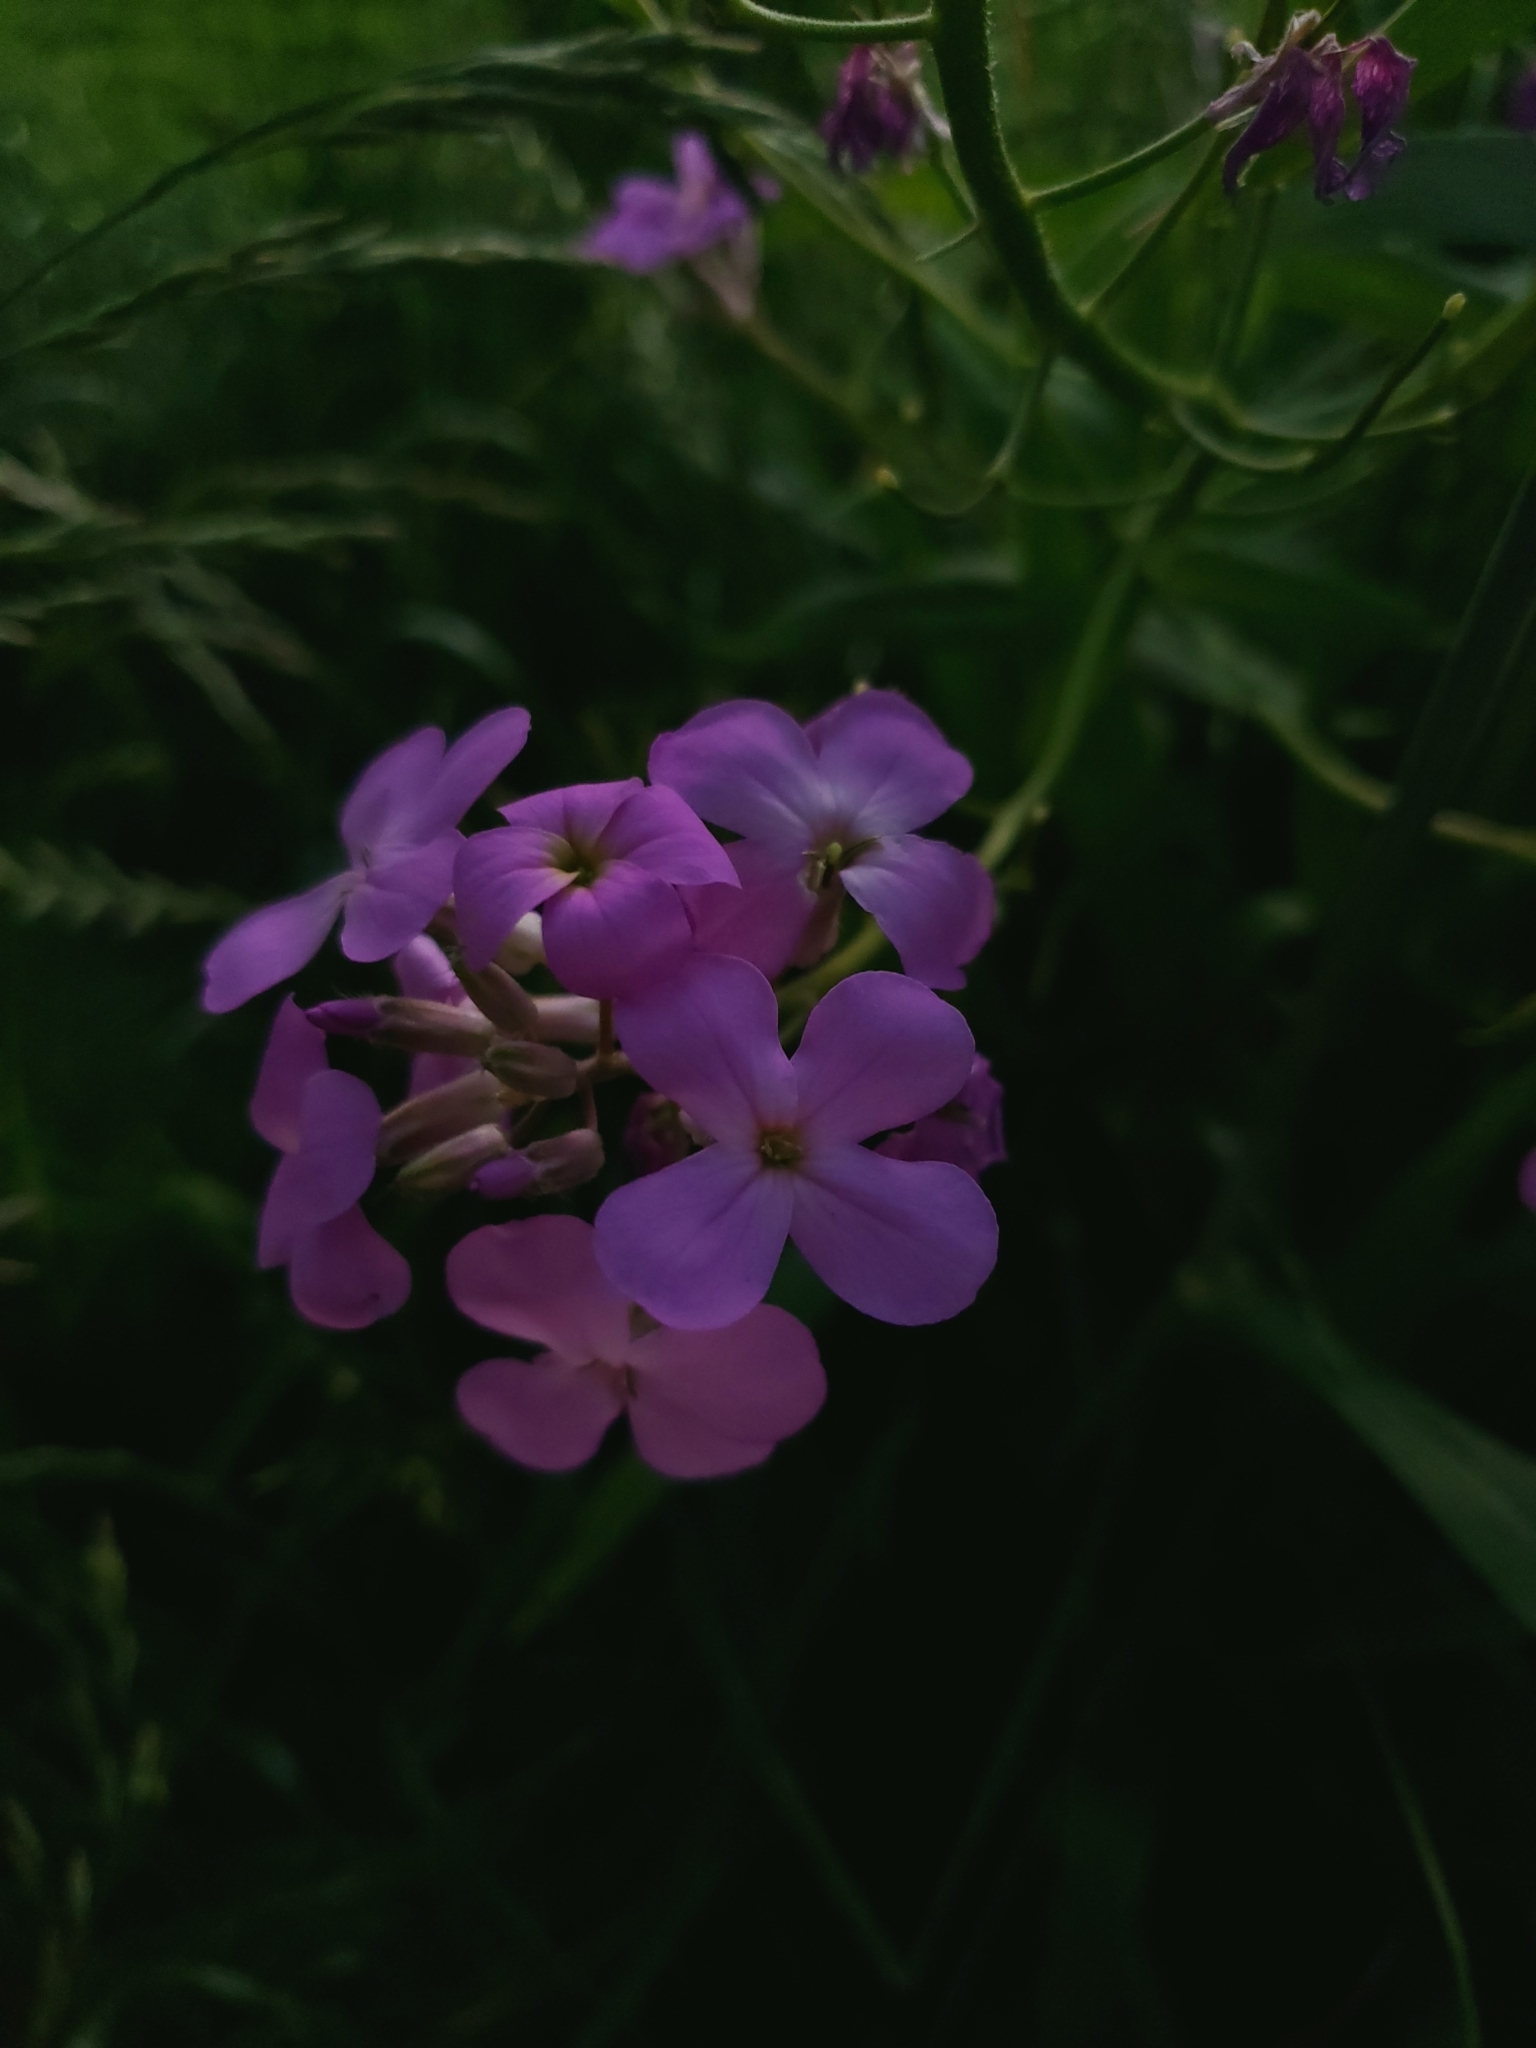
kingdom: Plantae
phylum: Tracheophyta
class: Magnoliopsida
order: Brassicales
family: Brassicaceae
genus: Hesperis
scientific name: Hesperis matronalis
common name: Dame's-violet
